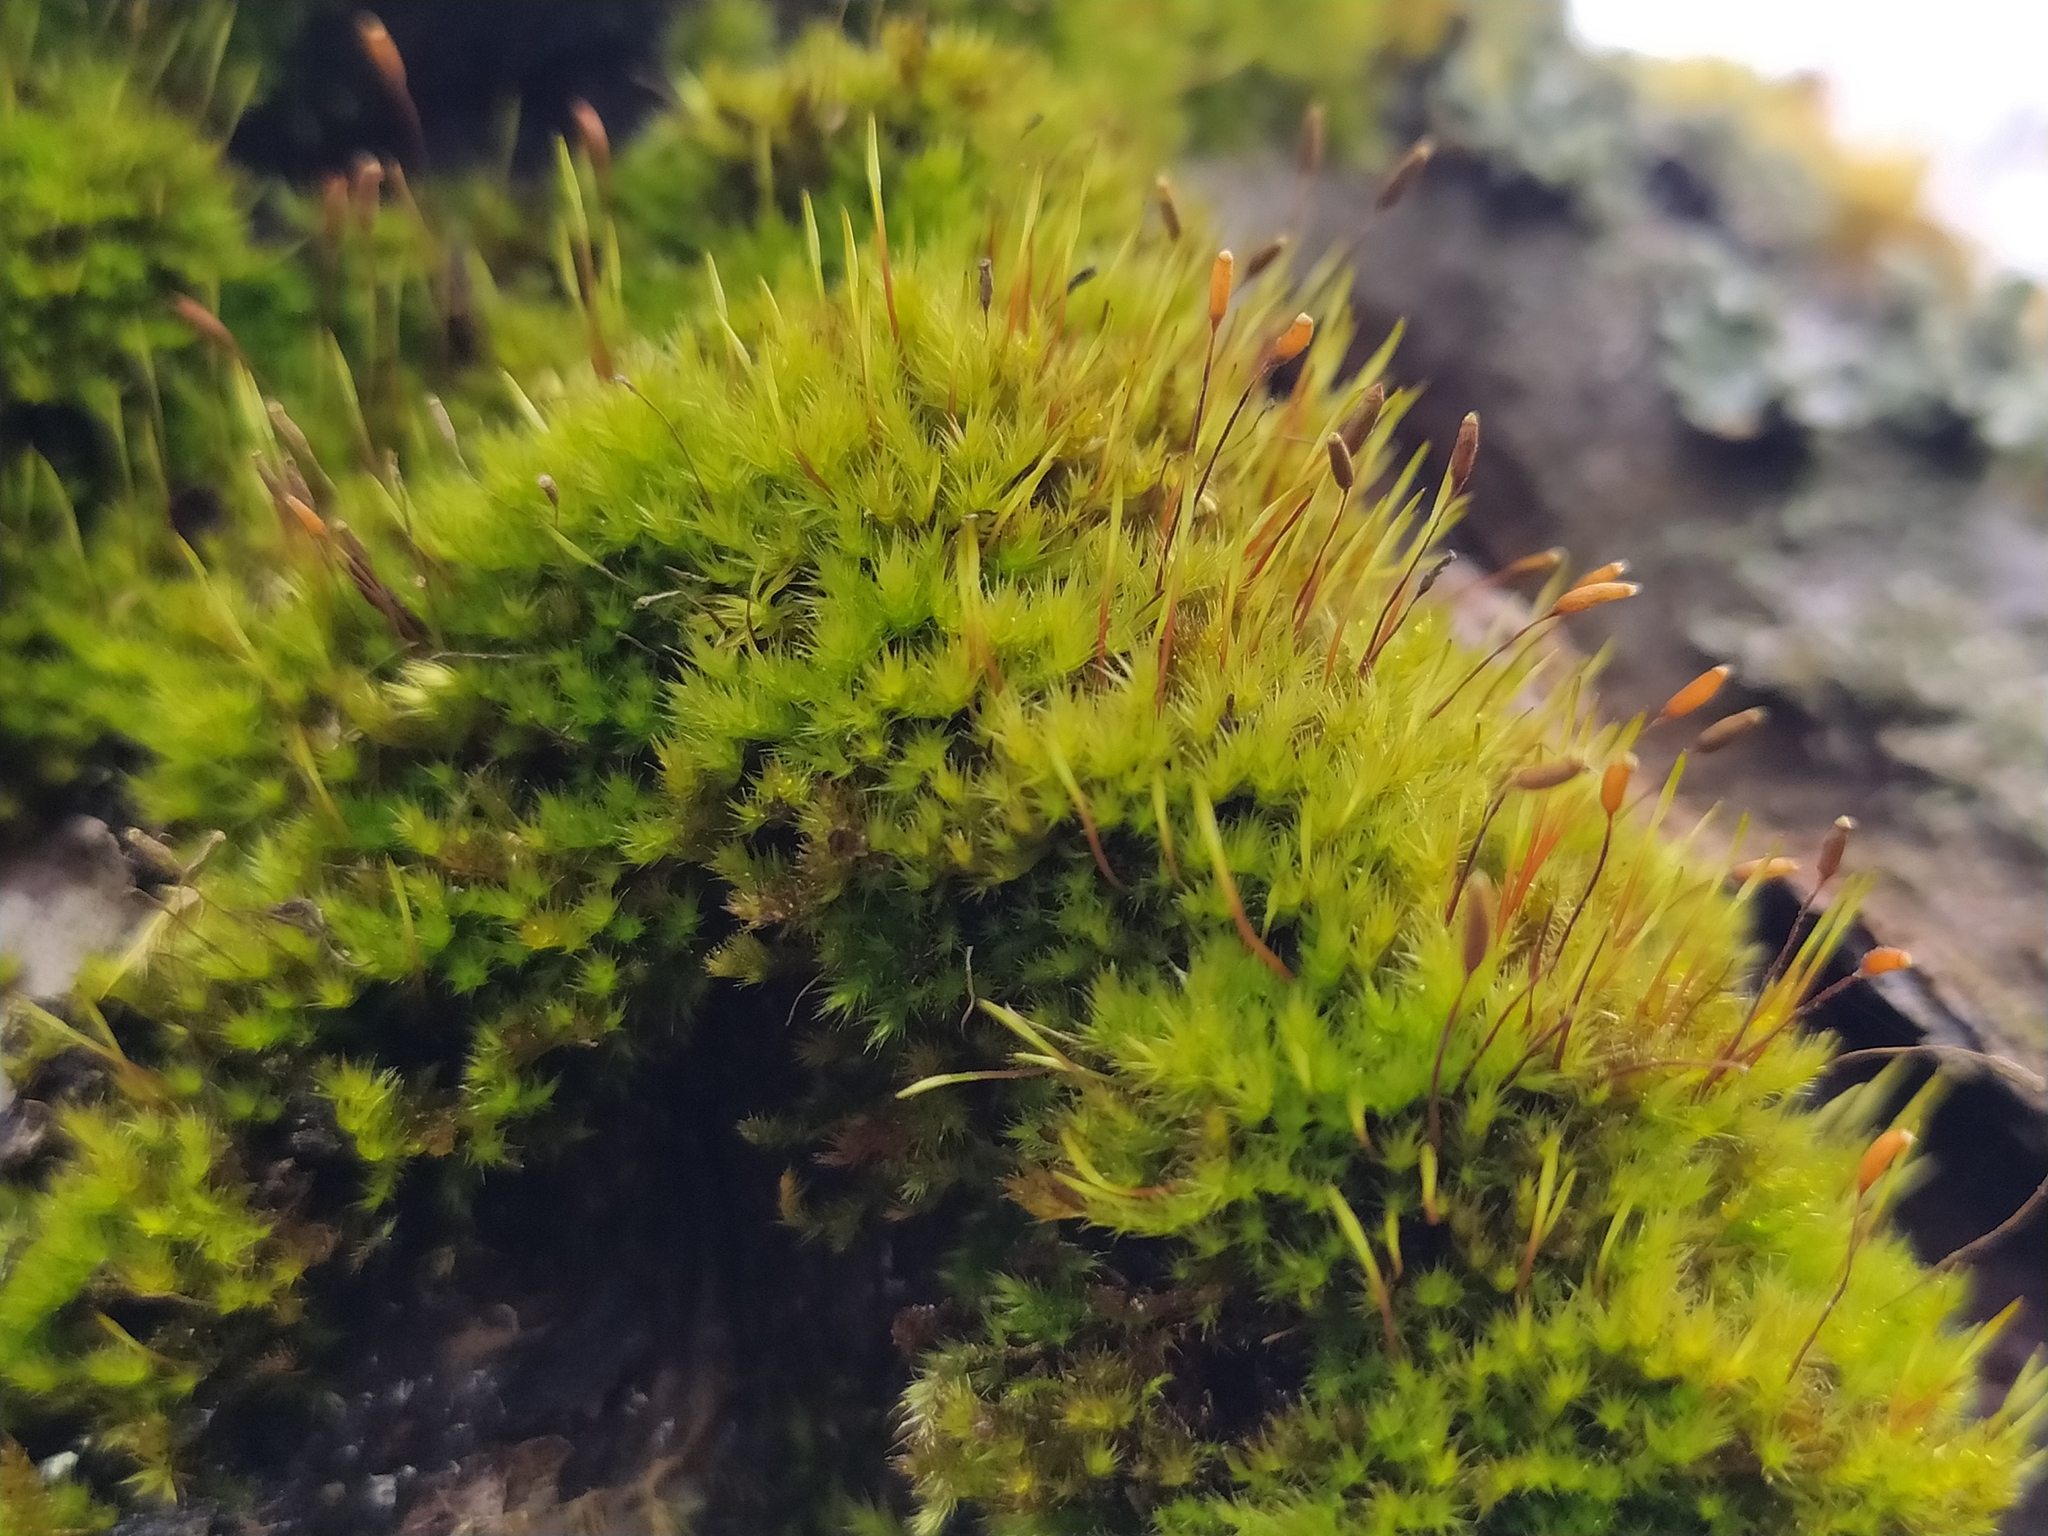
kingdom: Plantae
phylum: Bryophyta
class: Bryopsida
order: Hypnales
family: Pylaisiaceae
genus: Pylaisia
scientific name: Pylaisia polyantha
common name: Many-flowered leskea
